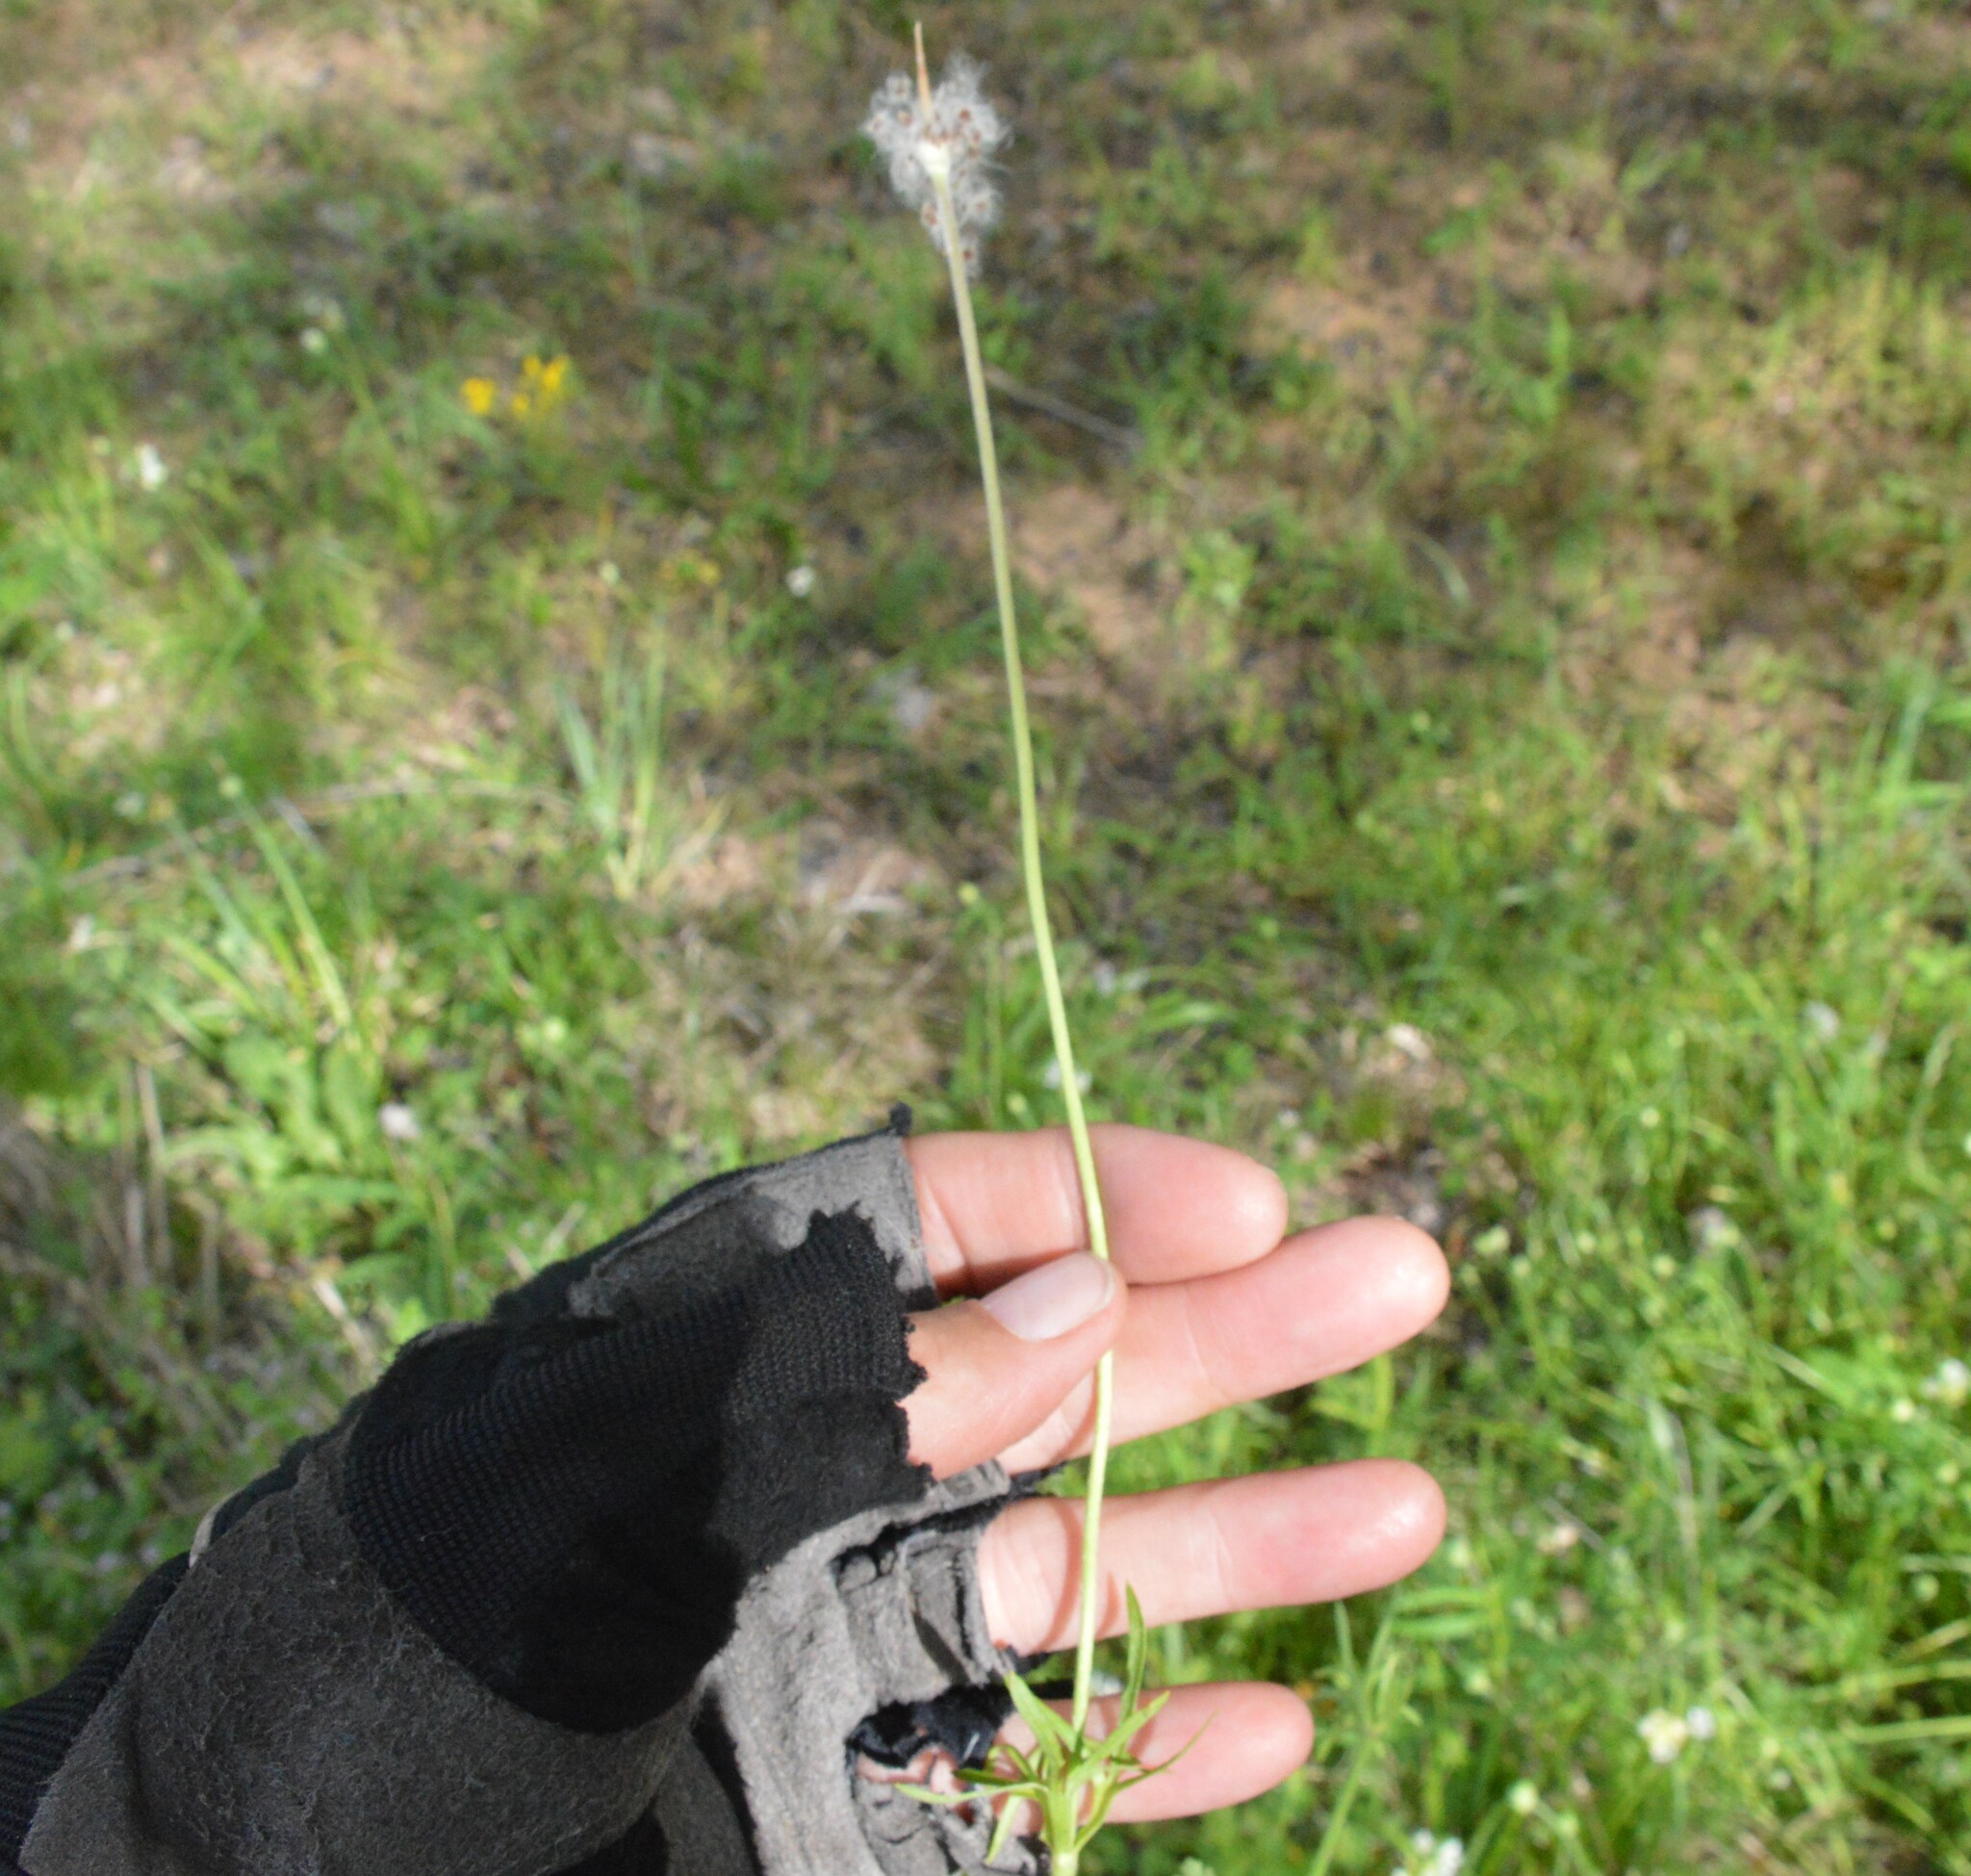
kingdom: Plantae
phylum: Tracheophyta
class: Magnoliopsida
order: Ranunculales
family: Ranunculaceae
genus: Anemone
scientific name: Anemone berlandieri
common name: Ten-petal anemone
